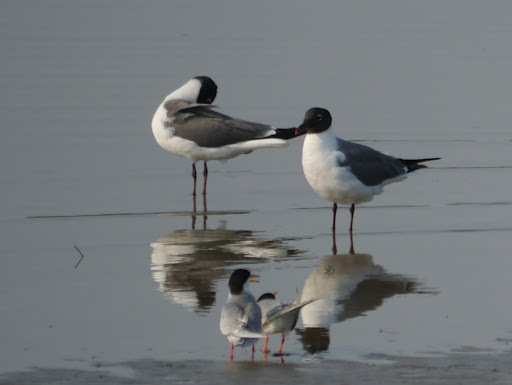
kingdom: Animalia
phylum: Chordata
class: Aves
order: Charadriiformes
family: Laridae
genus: Leucophaeus
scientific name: Leucophaeus atricilla
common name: Laughing gull
